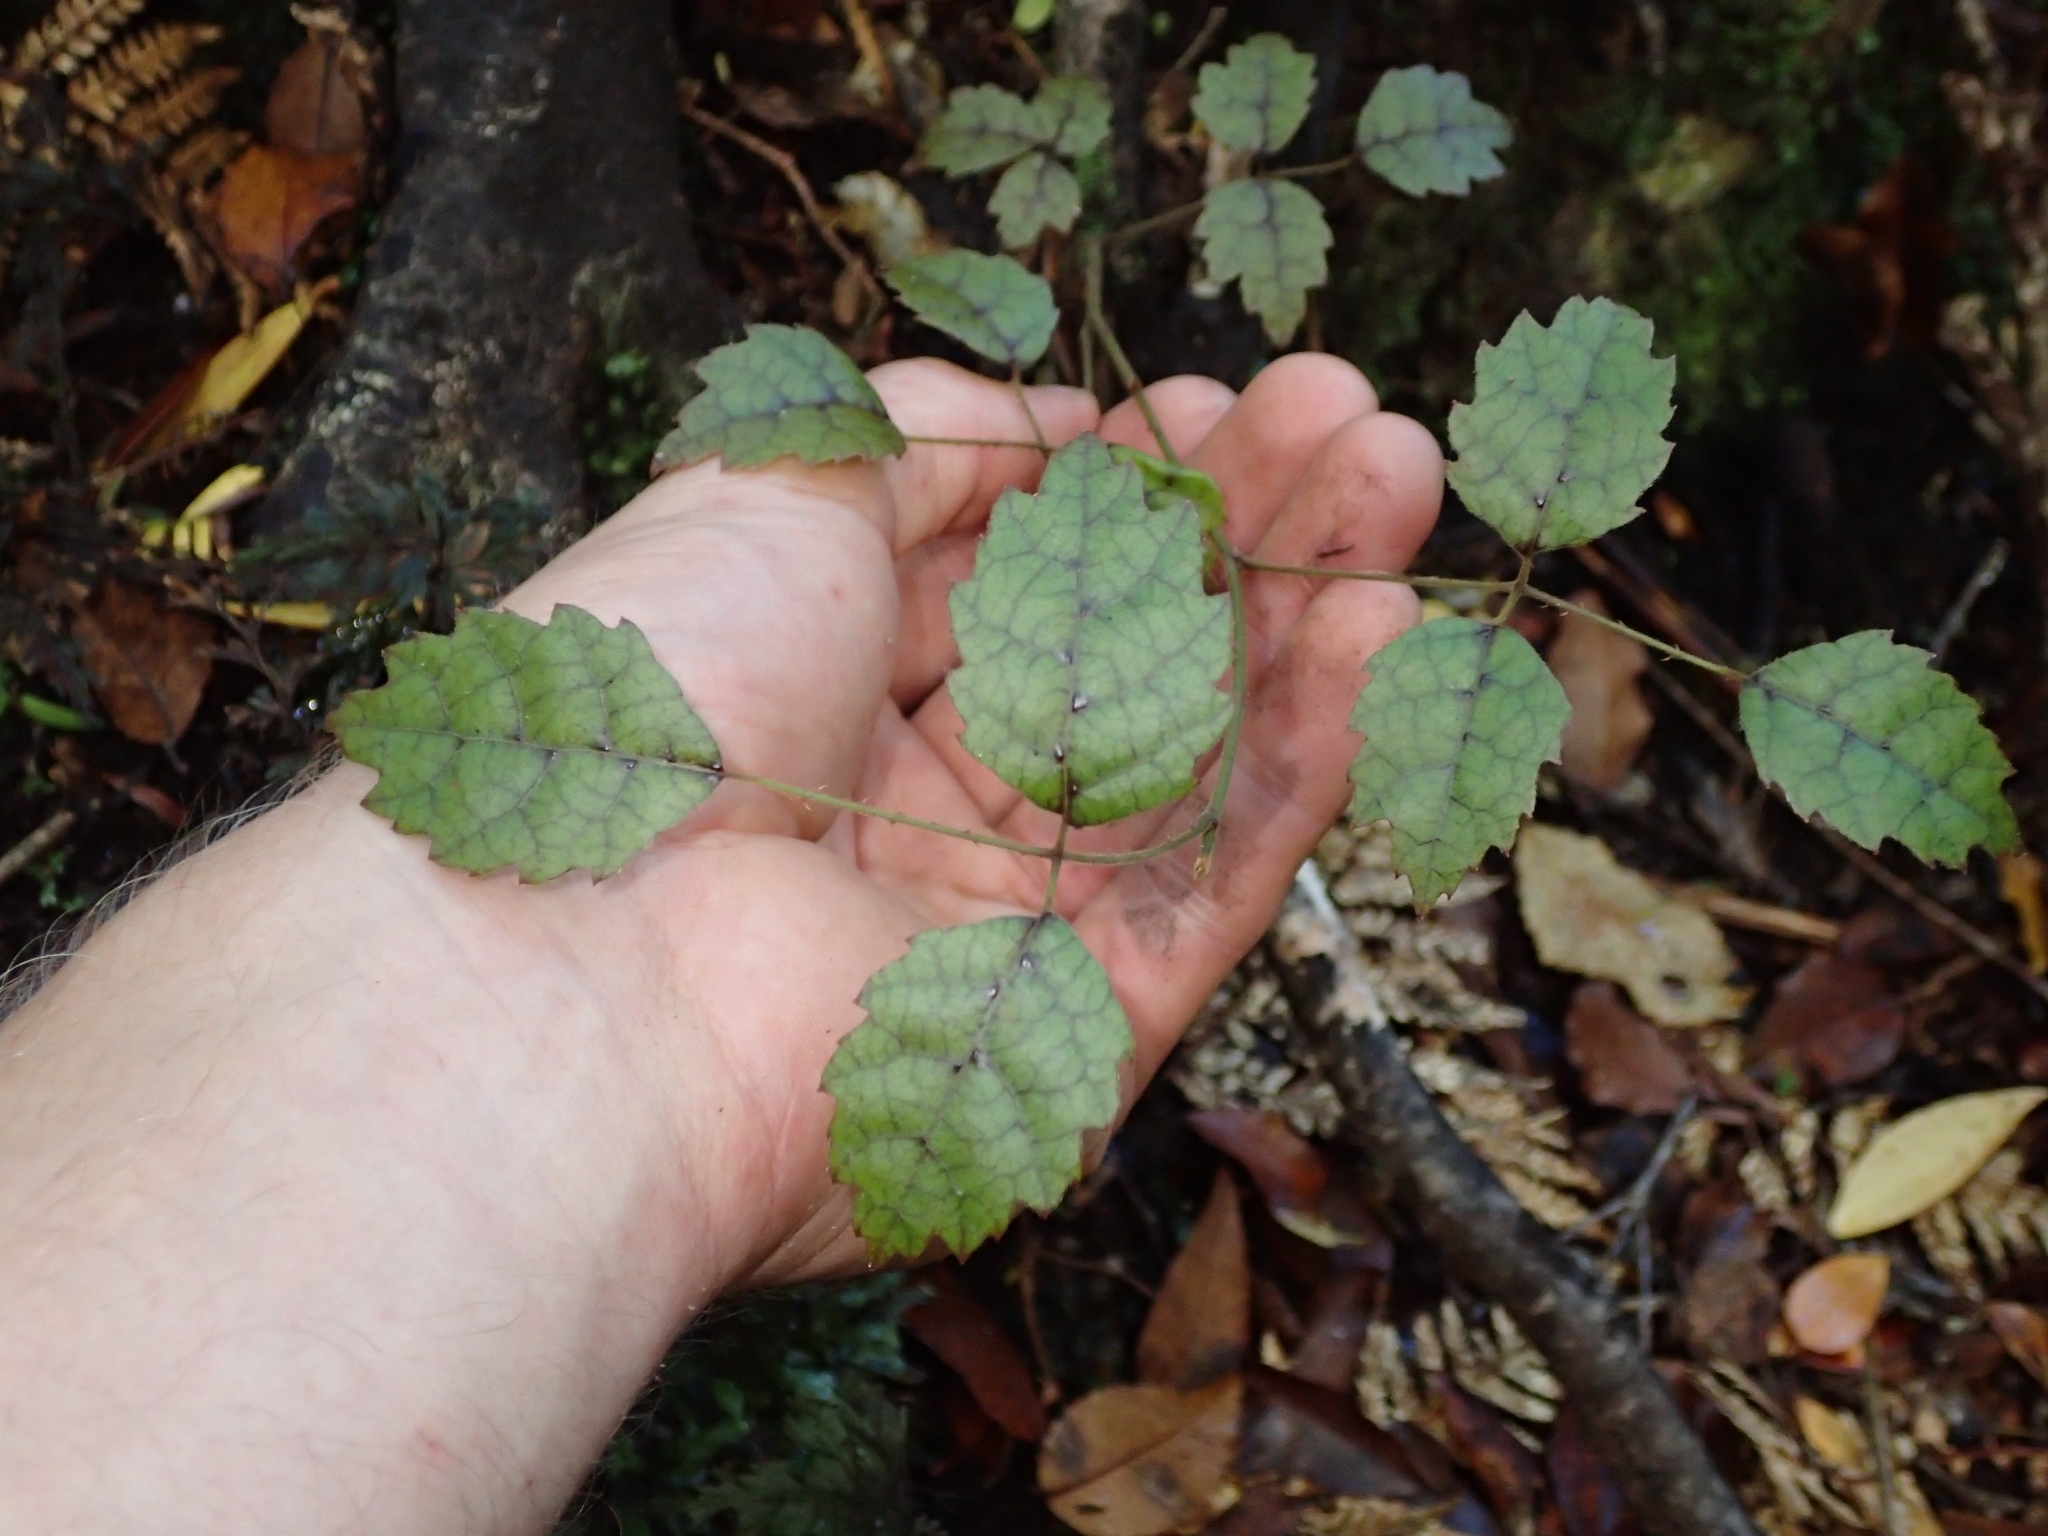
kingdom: Plantae
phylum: Tracheophyta
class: Magnoliopsida
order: Rosales
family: Rosaceae
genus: Rubus
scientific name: Rubus australis
